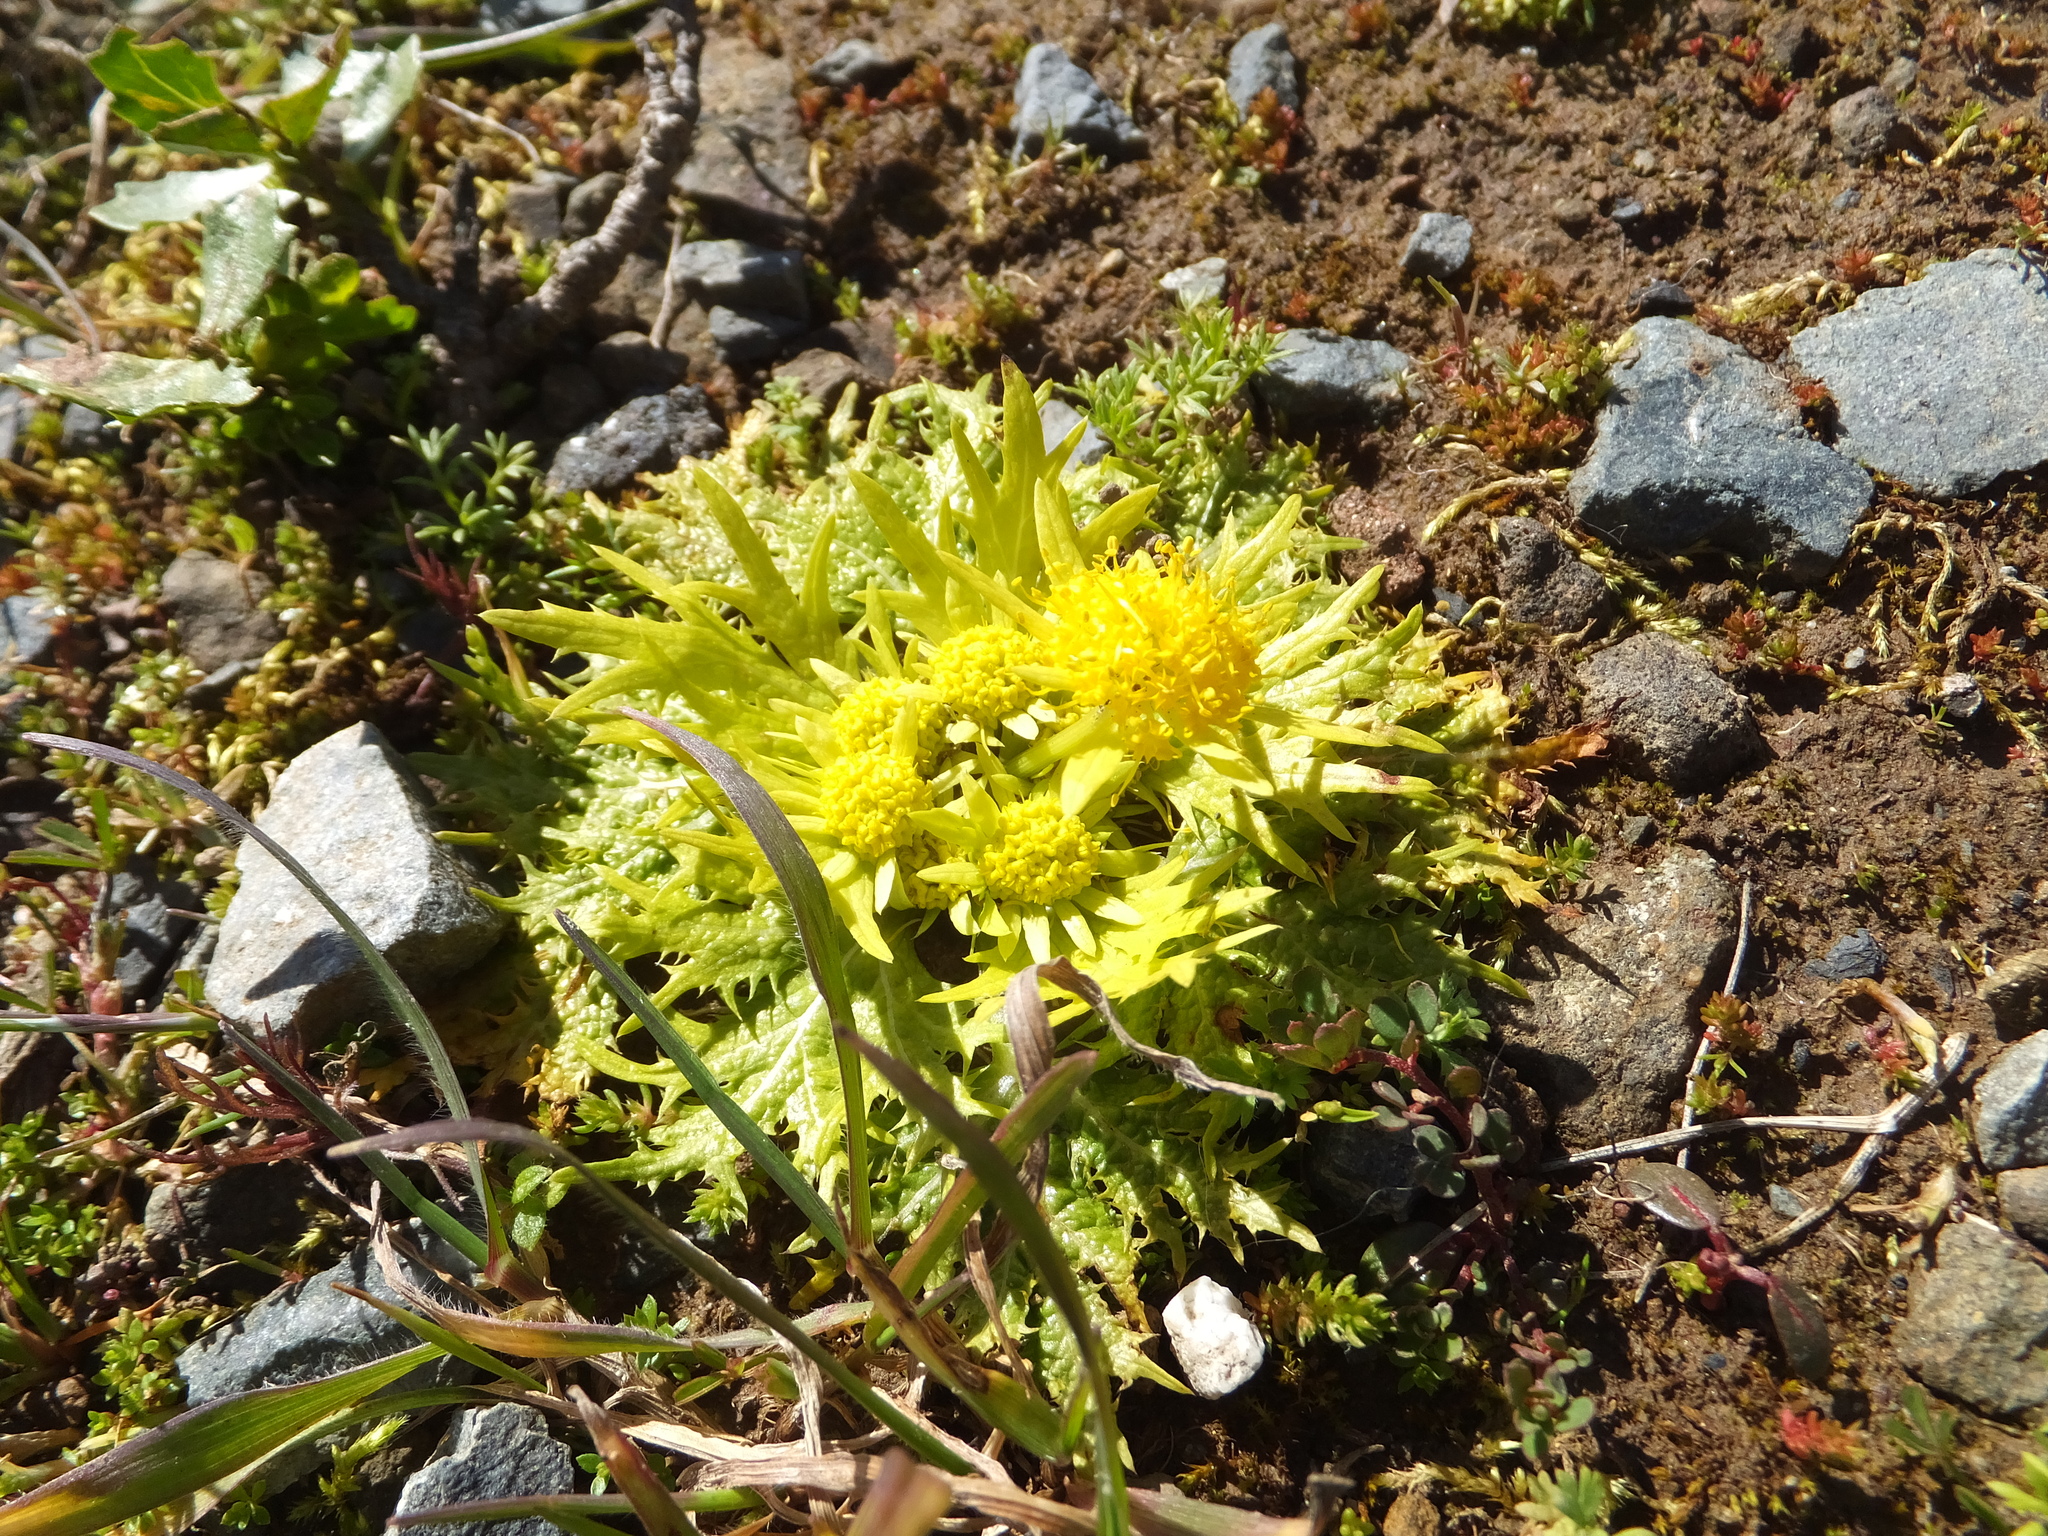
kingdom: Plantae
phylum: Tracheophyta
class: Magnoliopsida
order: Apiales
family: Apiaceae
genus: Sanicula
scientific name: Sanicula arctopoides
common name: Footsteps-of-spring
